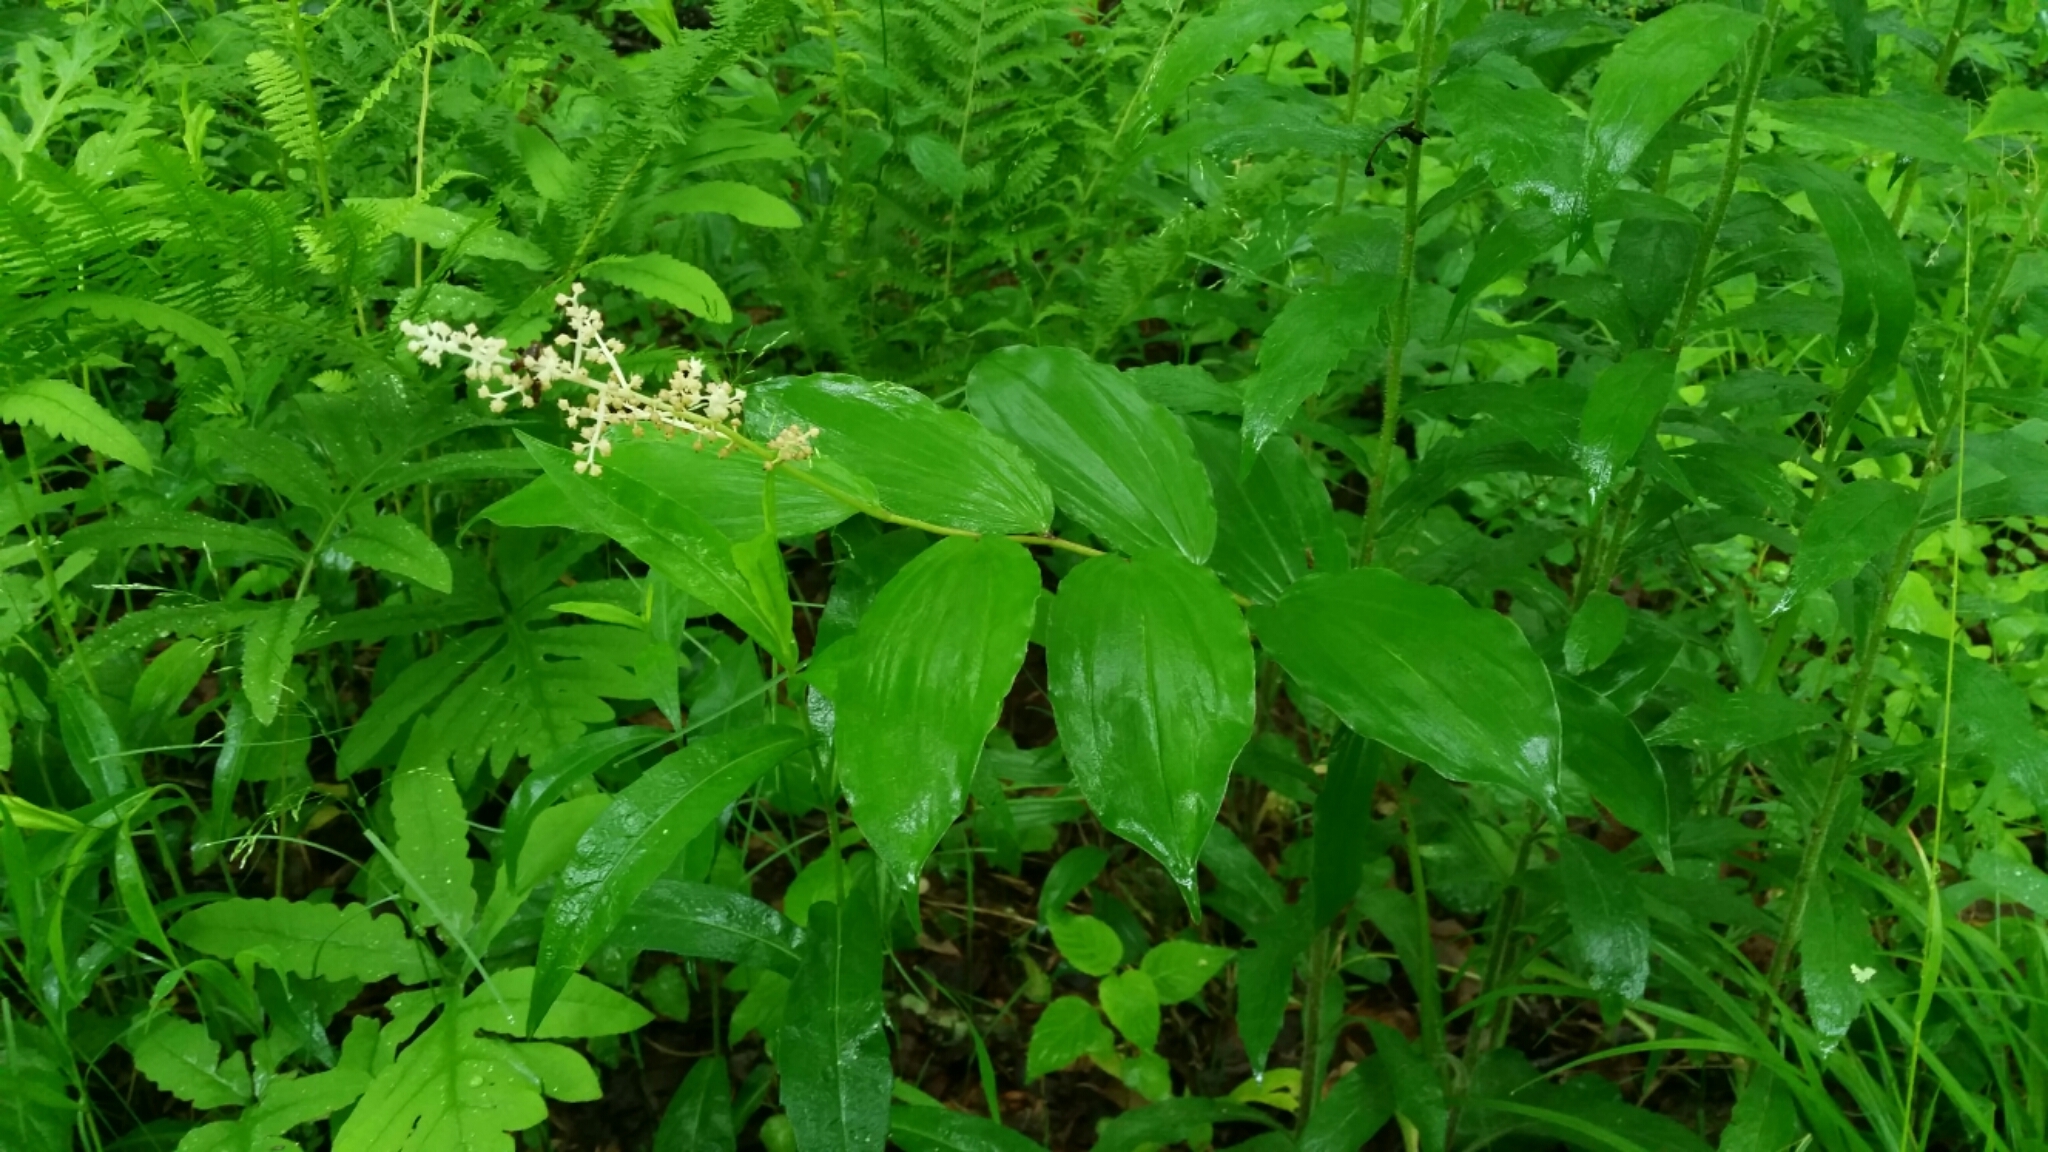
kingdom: Plantae
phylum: Tracheophyta
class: Liliopsida
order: Asparagales
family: Asparagaceae
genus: Maianthemum
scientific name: Maianthemum racemosum
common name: False spikenard
